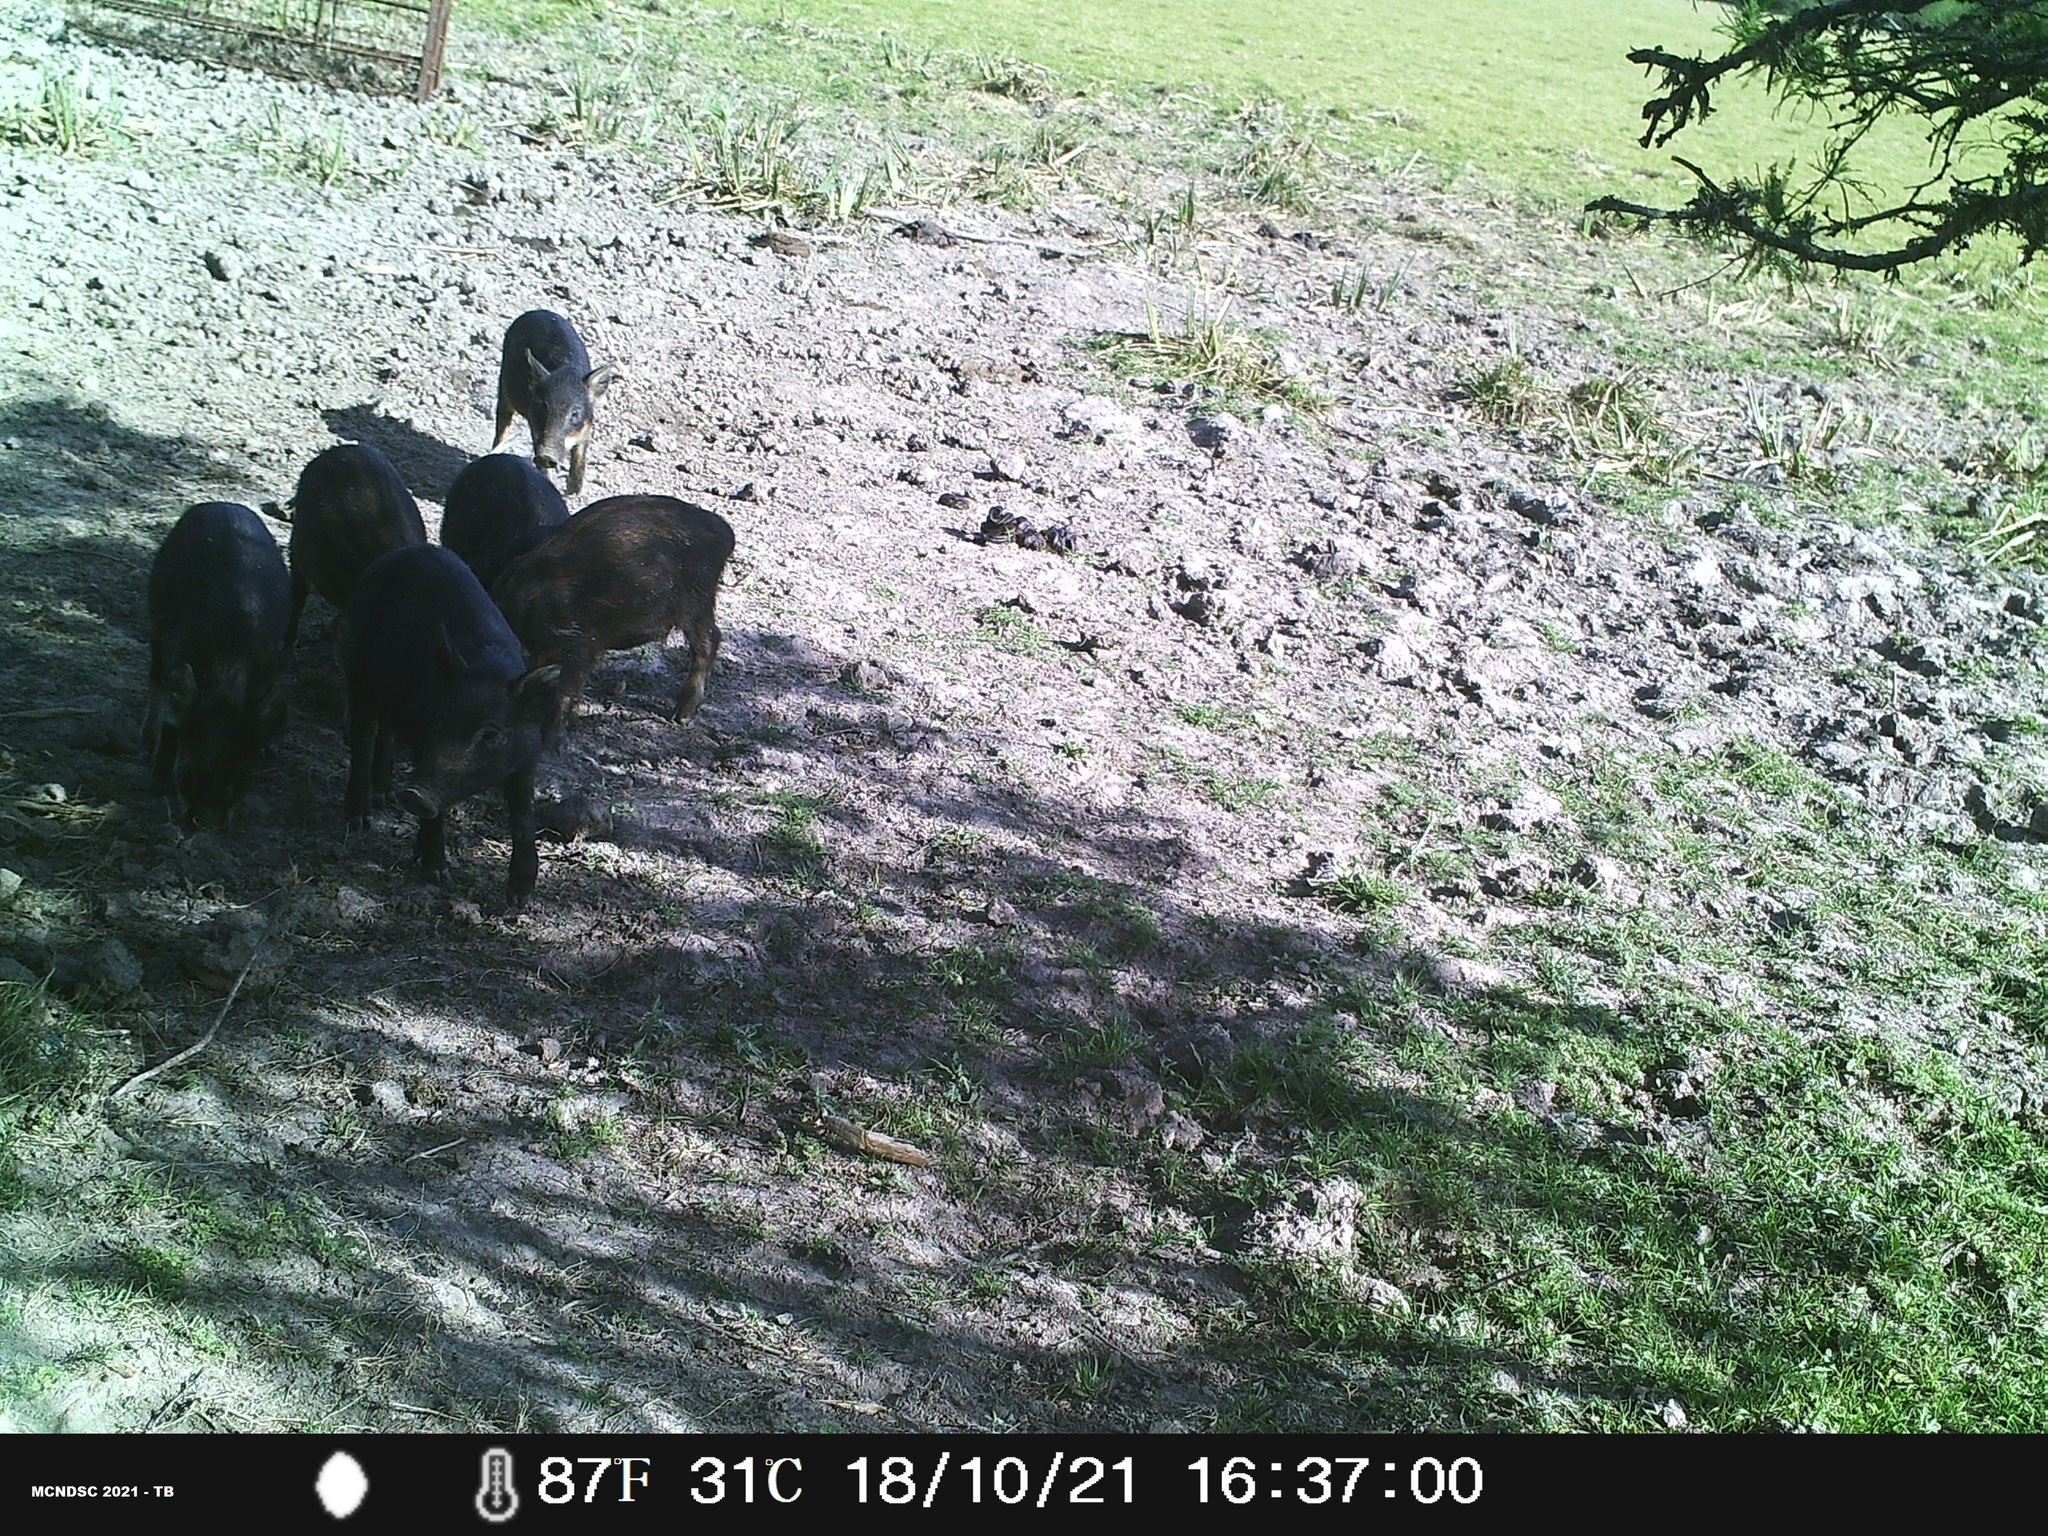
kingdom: Animalia
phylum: Chordata
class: Mammalia
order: Artiodactyla
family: Suidae
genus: Sus
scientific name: Sus scrofa
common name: Wild boar
